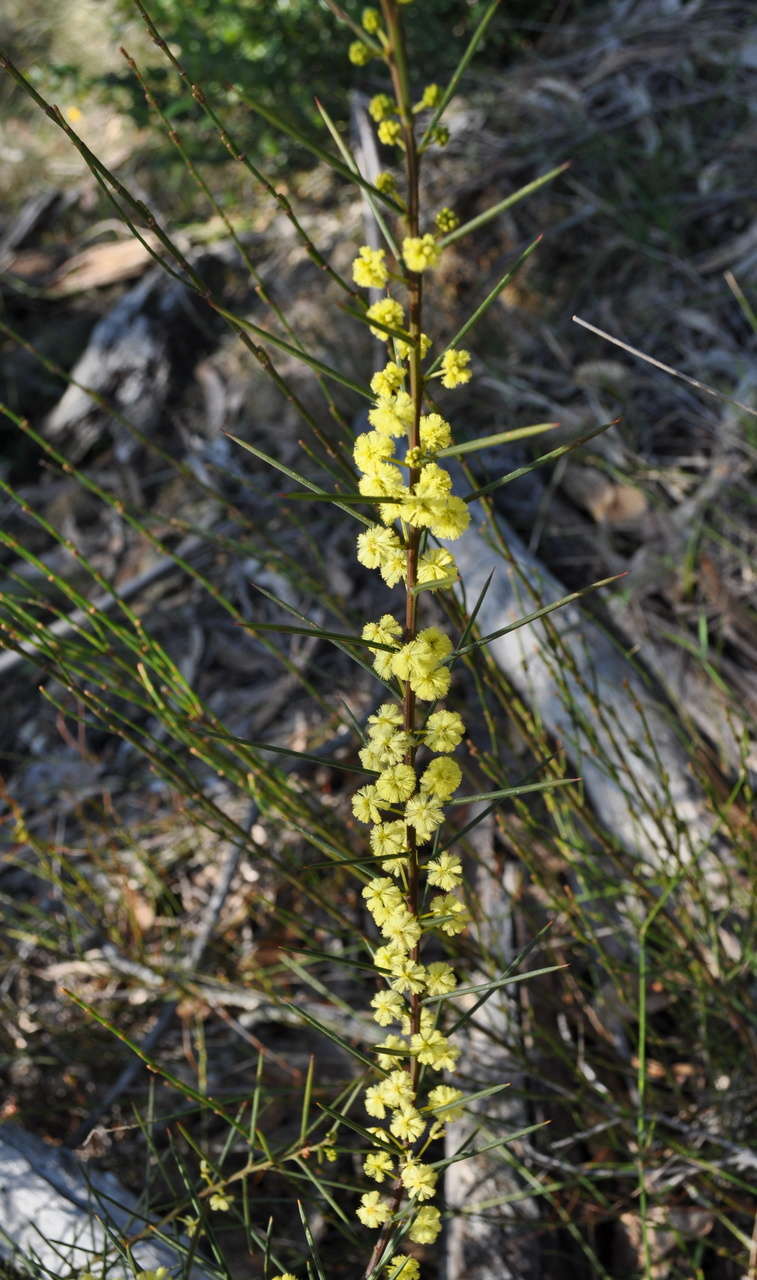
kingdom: Plantae
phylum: Tracheophyta
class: Magnoliopsida
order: Fabales
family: Fabaceae
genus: Acacia
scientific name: Acacia genistifolia
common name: Early wattle
